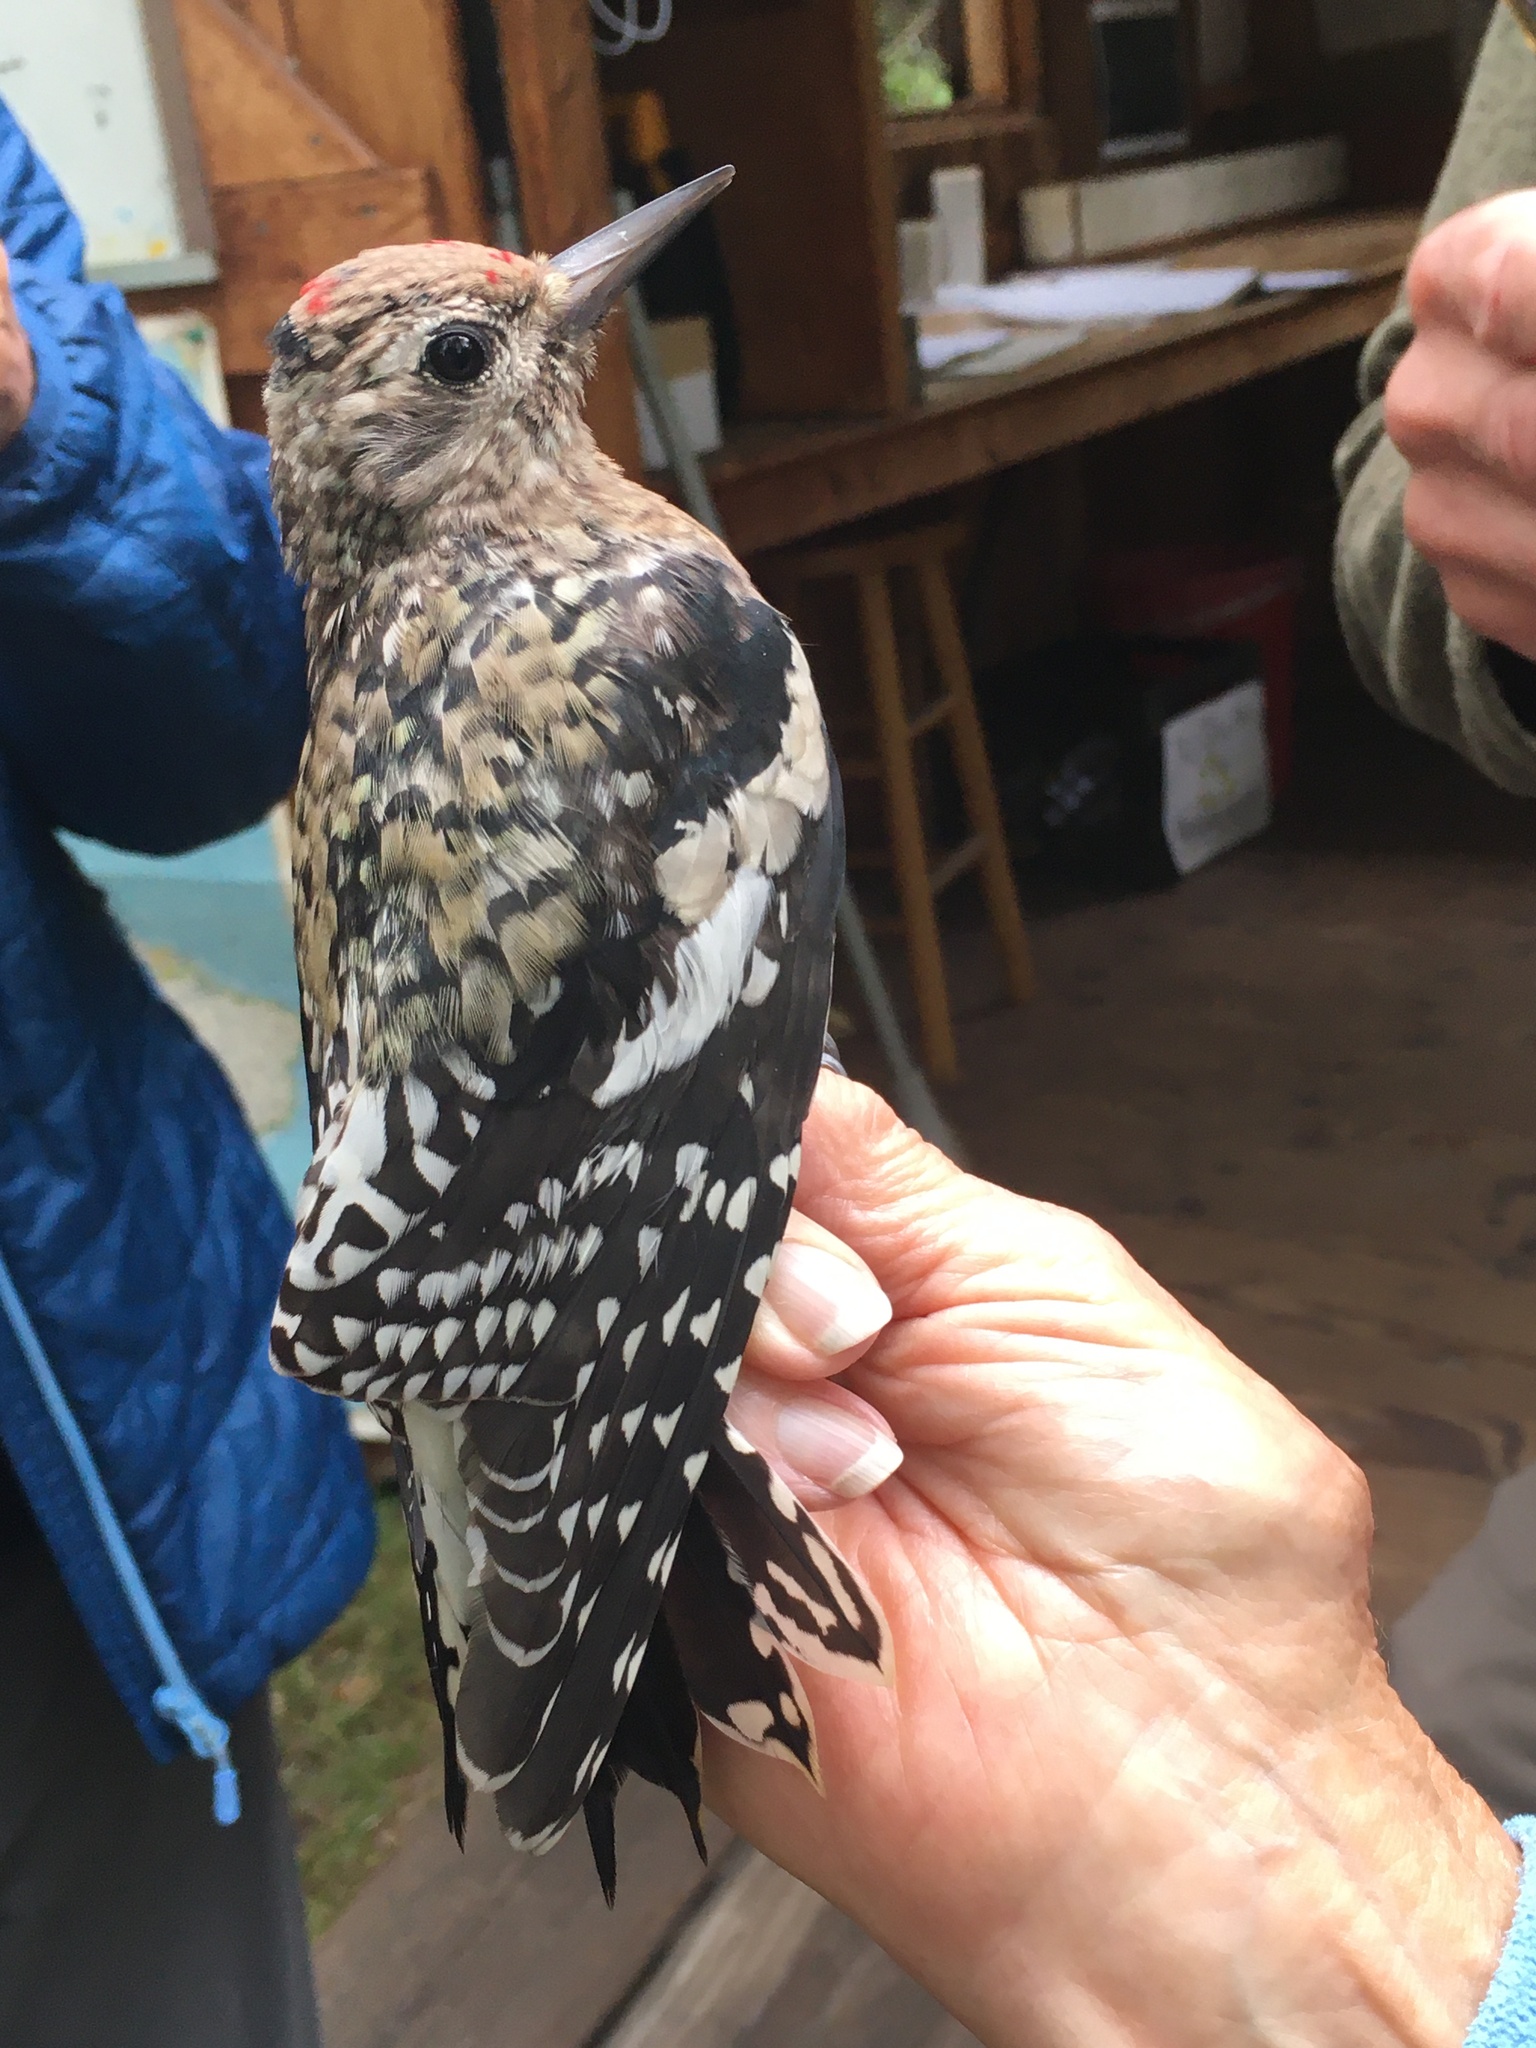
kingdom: Animalia
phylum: Chordata
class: Aves
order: Piciformes
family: Picidae
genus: Sphyrapicus
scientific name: Sphyrapicus varius
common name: Yellow-bellied sapsucker
